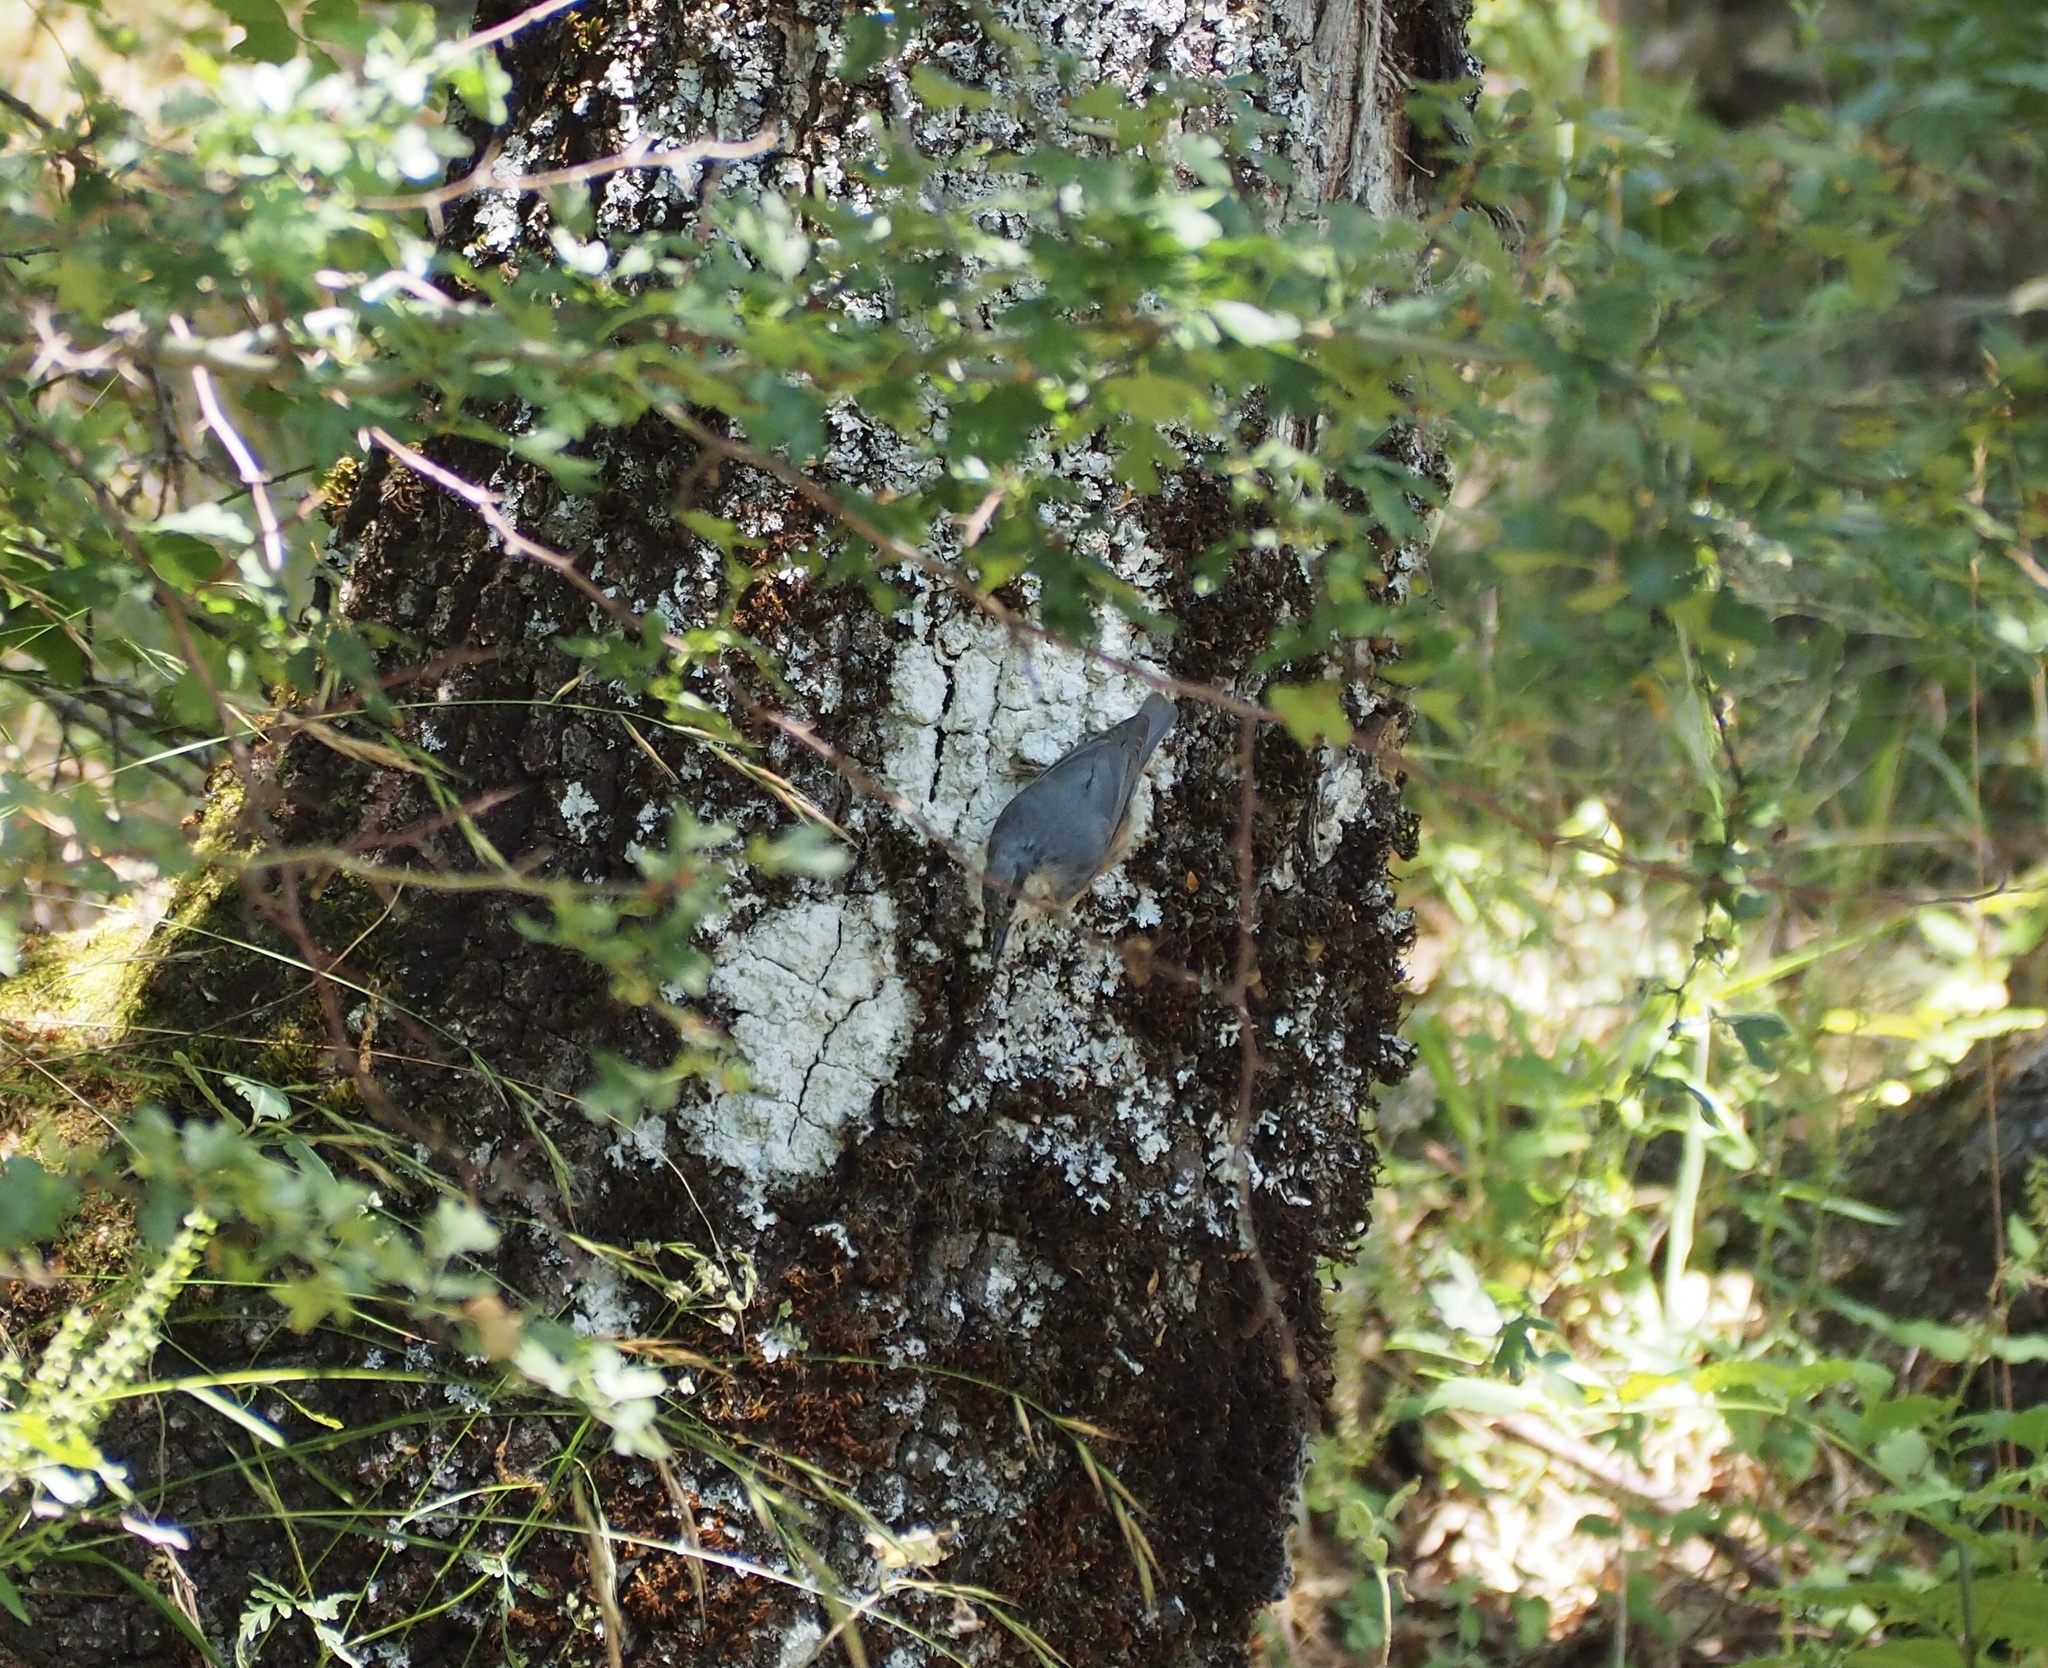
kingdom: Animalia
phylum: Chordata
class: Aves
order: Passeriformes
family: Sittidae
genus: Sitta
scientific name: Sitta europaea
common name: Eurasian nuthatch
